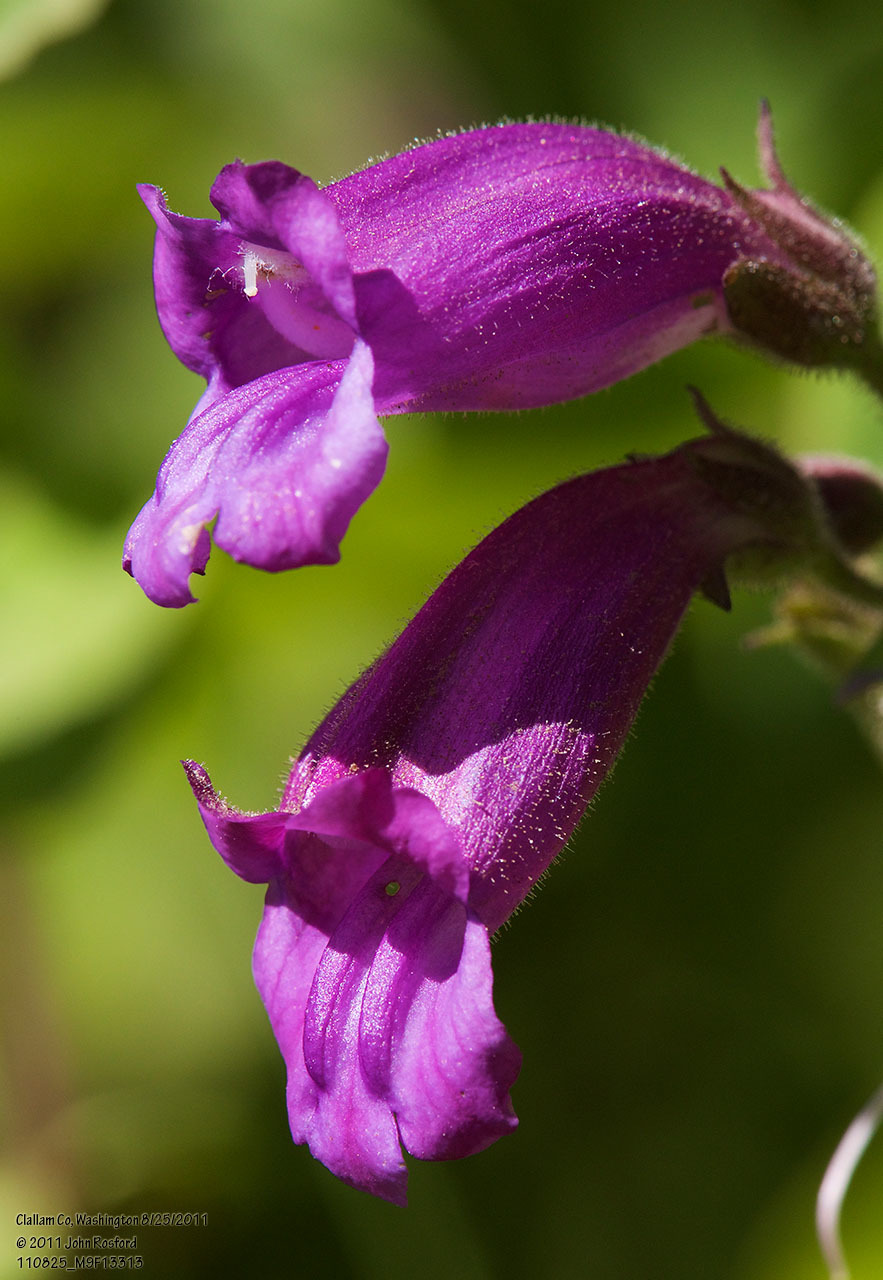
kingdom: Plantae
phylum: Tracheophyta
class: Magnoliopsida
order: Lamiales
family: Plantaginaceae
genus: Nothochelone
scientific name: Nothochelone nemorosa
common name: Woodland beardtongue
